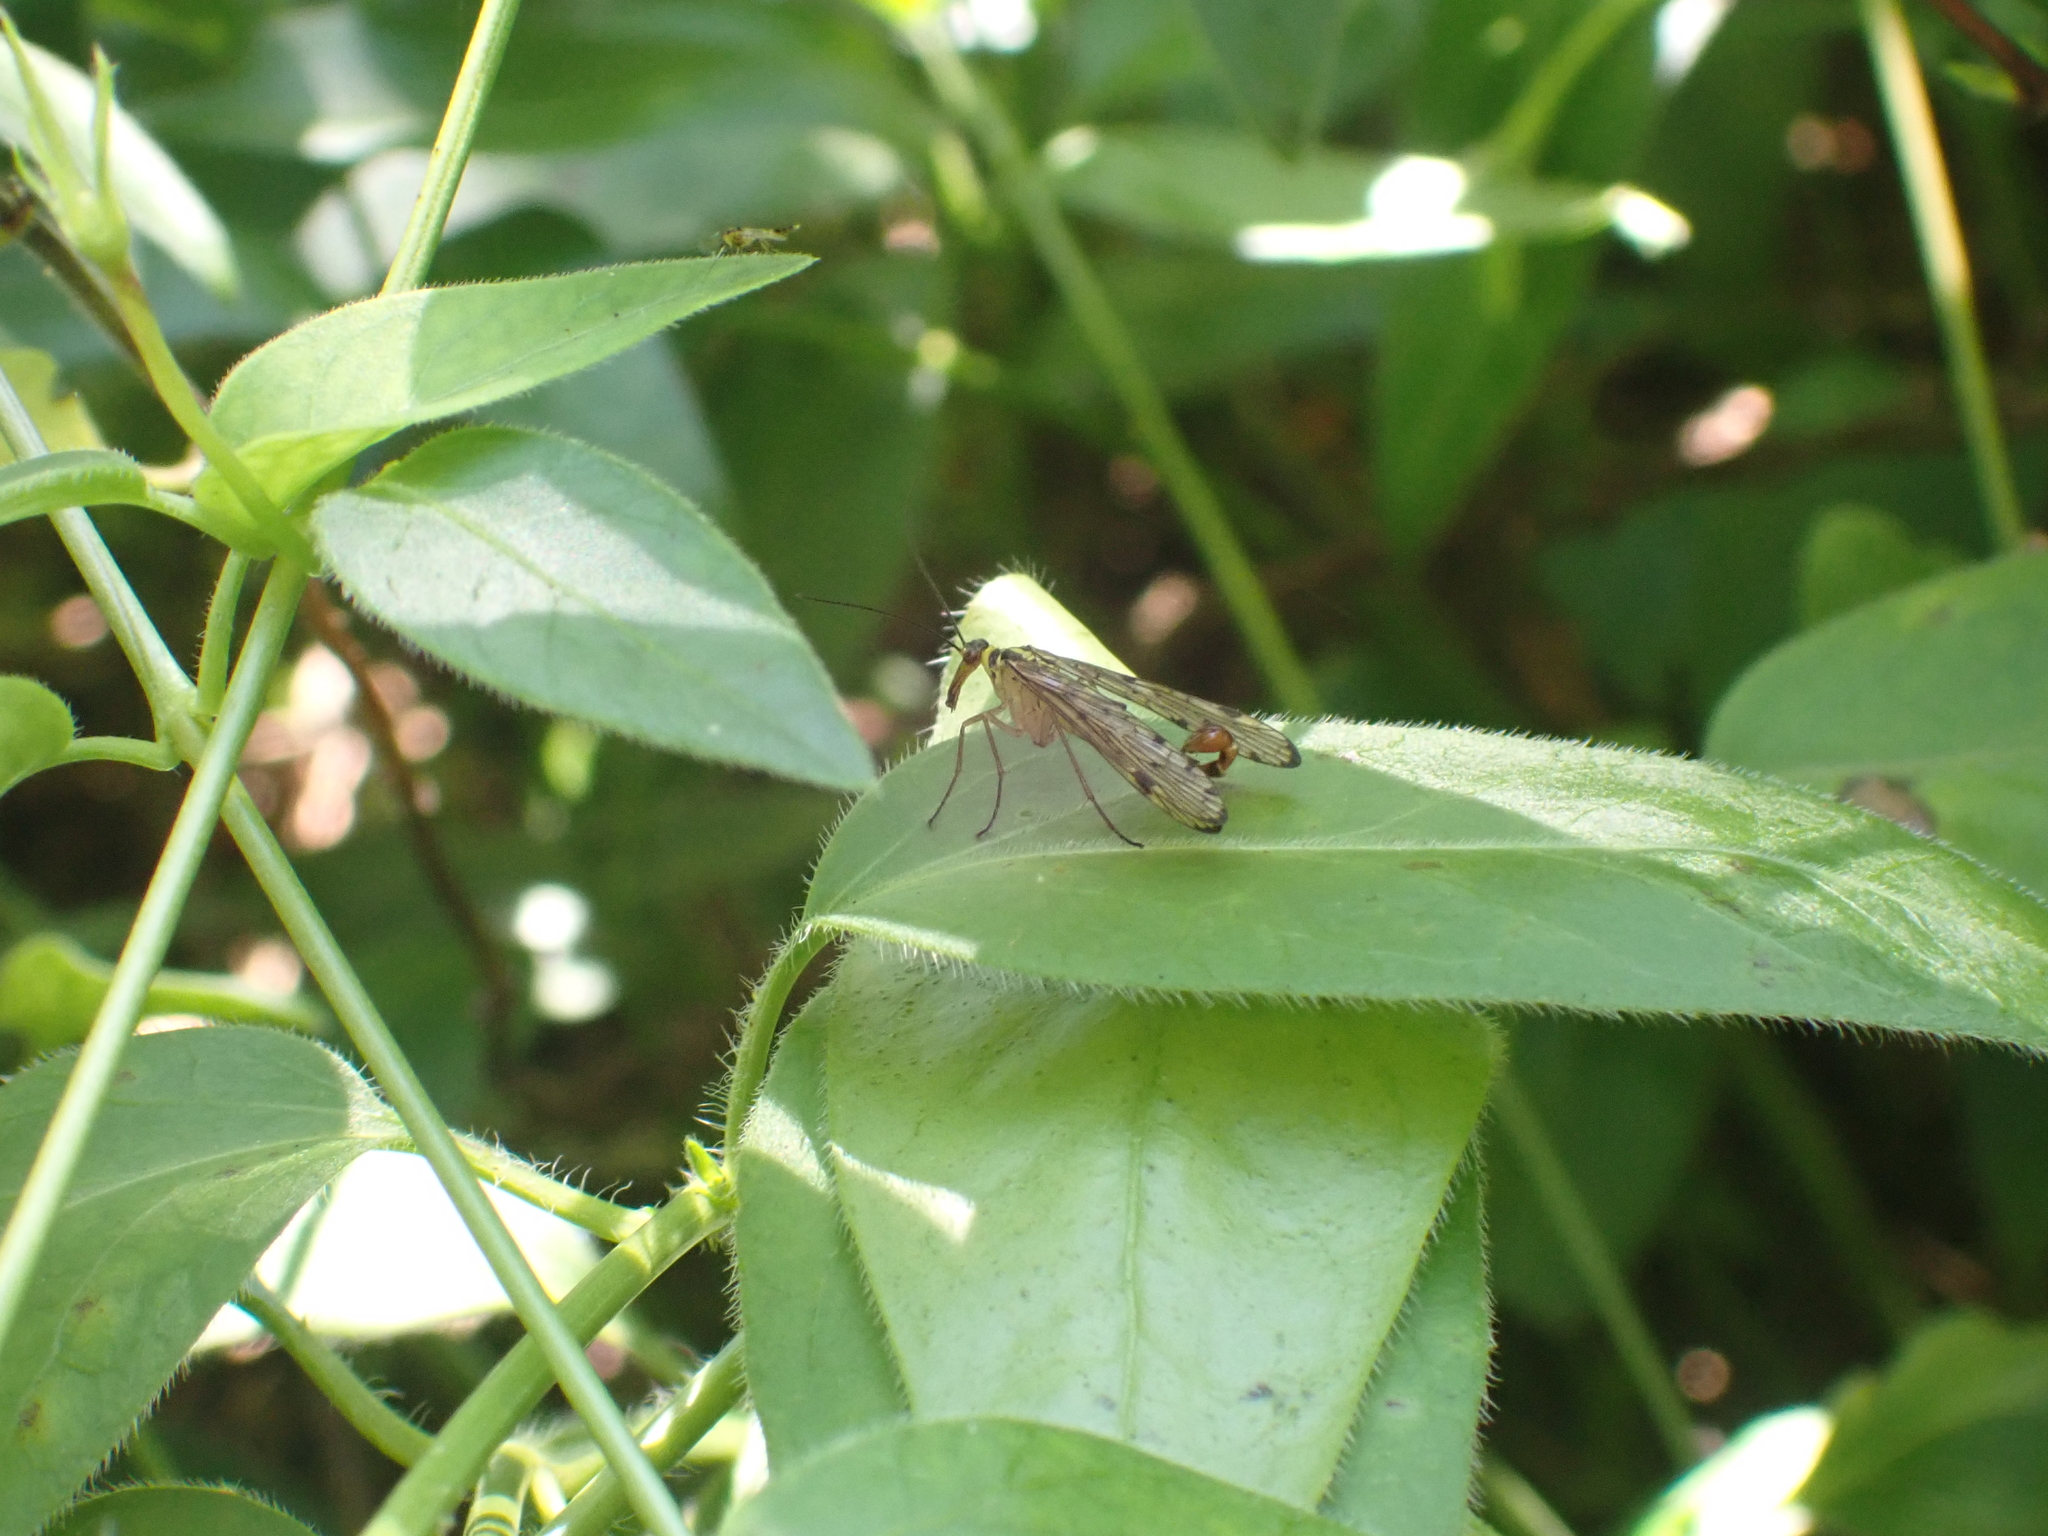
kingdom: Animalia
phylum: Arthropoda
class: Insecta
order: Mecoptera
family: Panorpidae
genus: Panorpa
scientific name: Panorpa germanica
